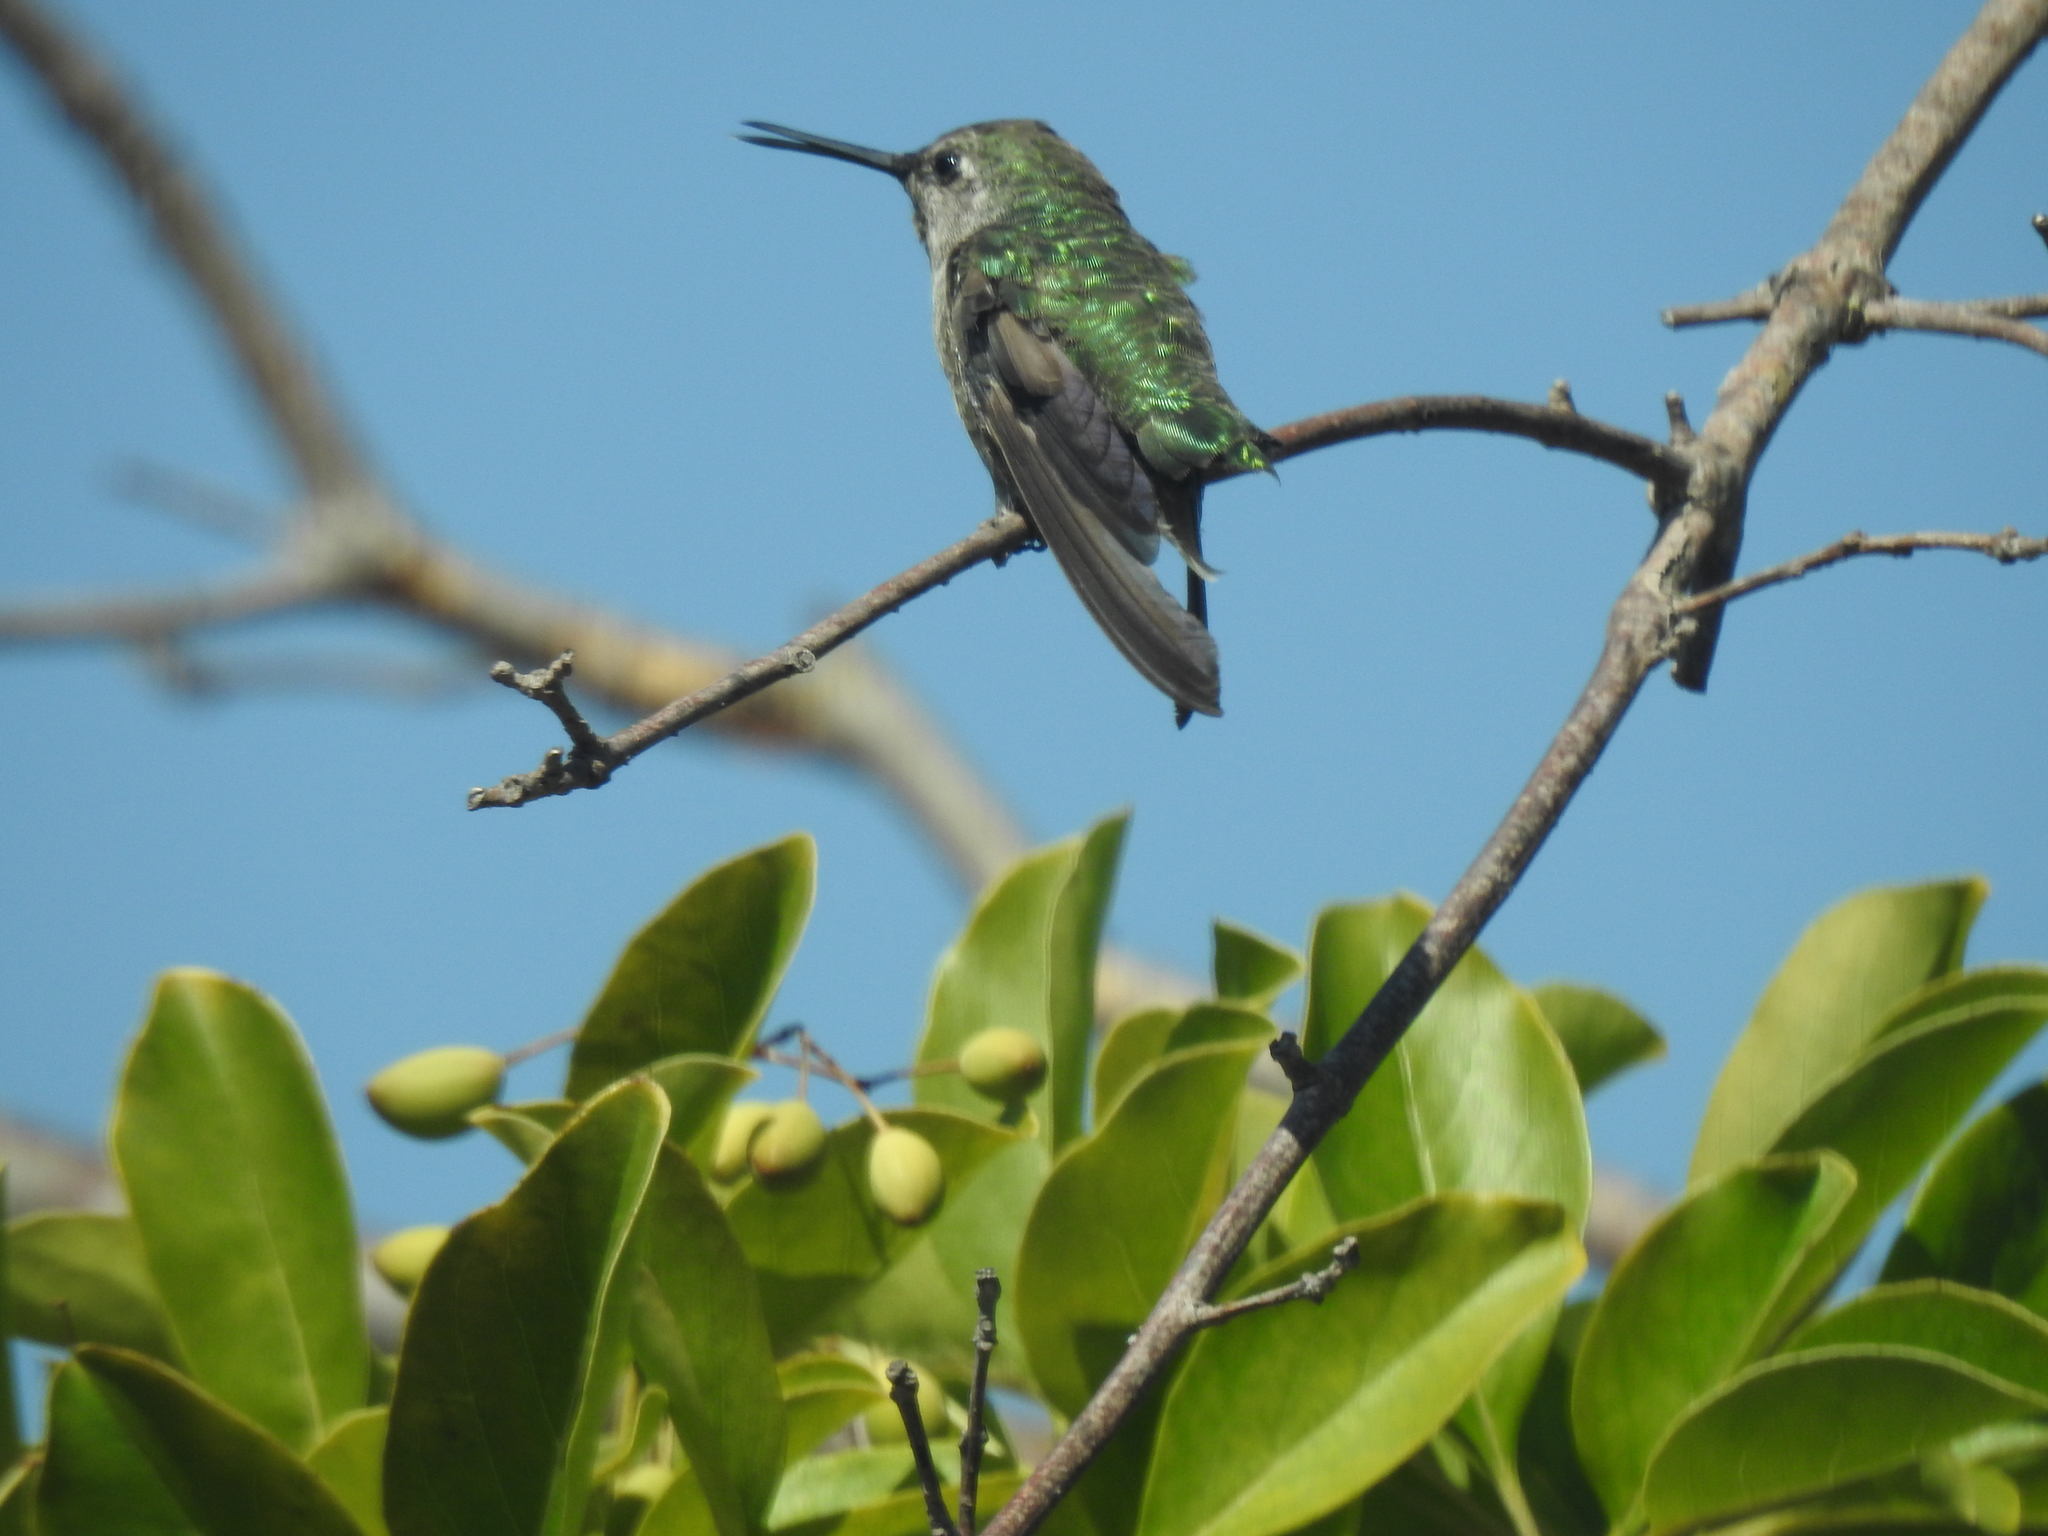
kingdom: Animalia
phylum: Chordata
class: Aves
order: Apodiformes
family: Trochilidae
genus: Calypte
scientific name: Calypte anna
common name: Anna's hummingbird
